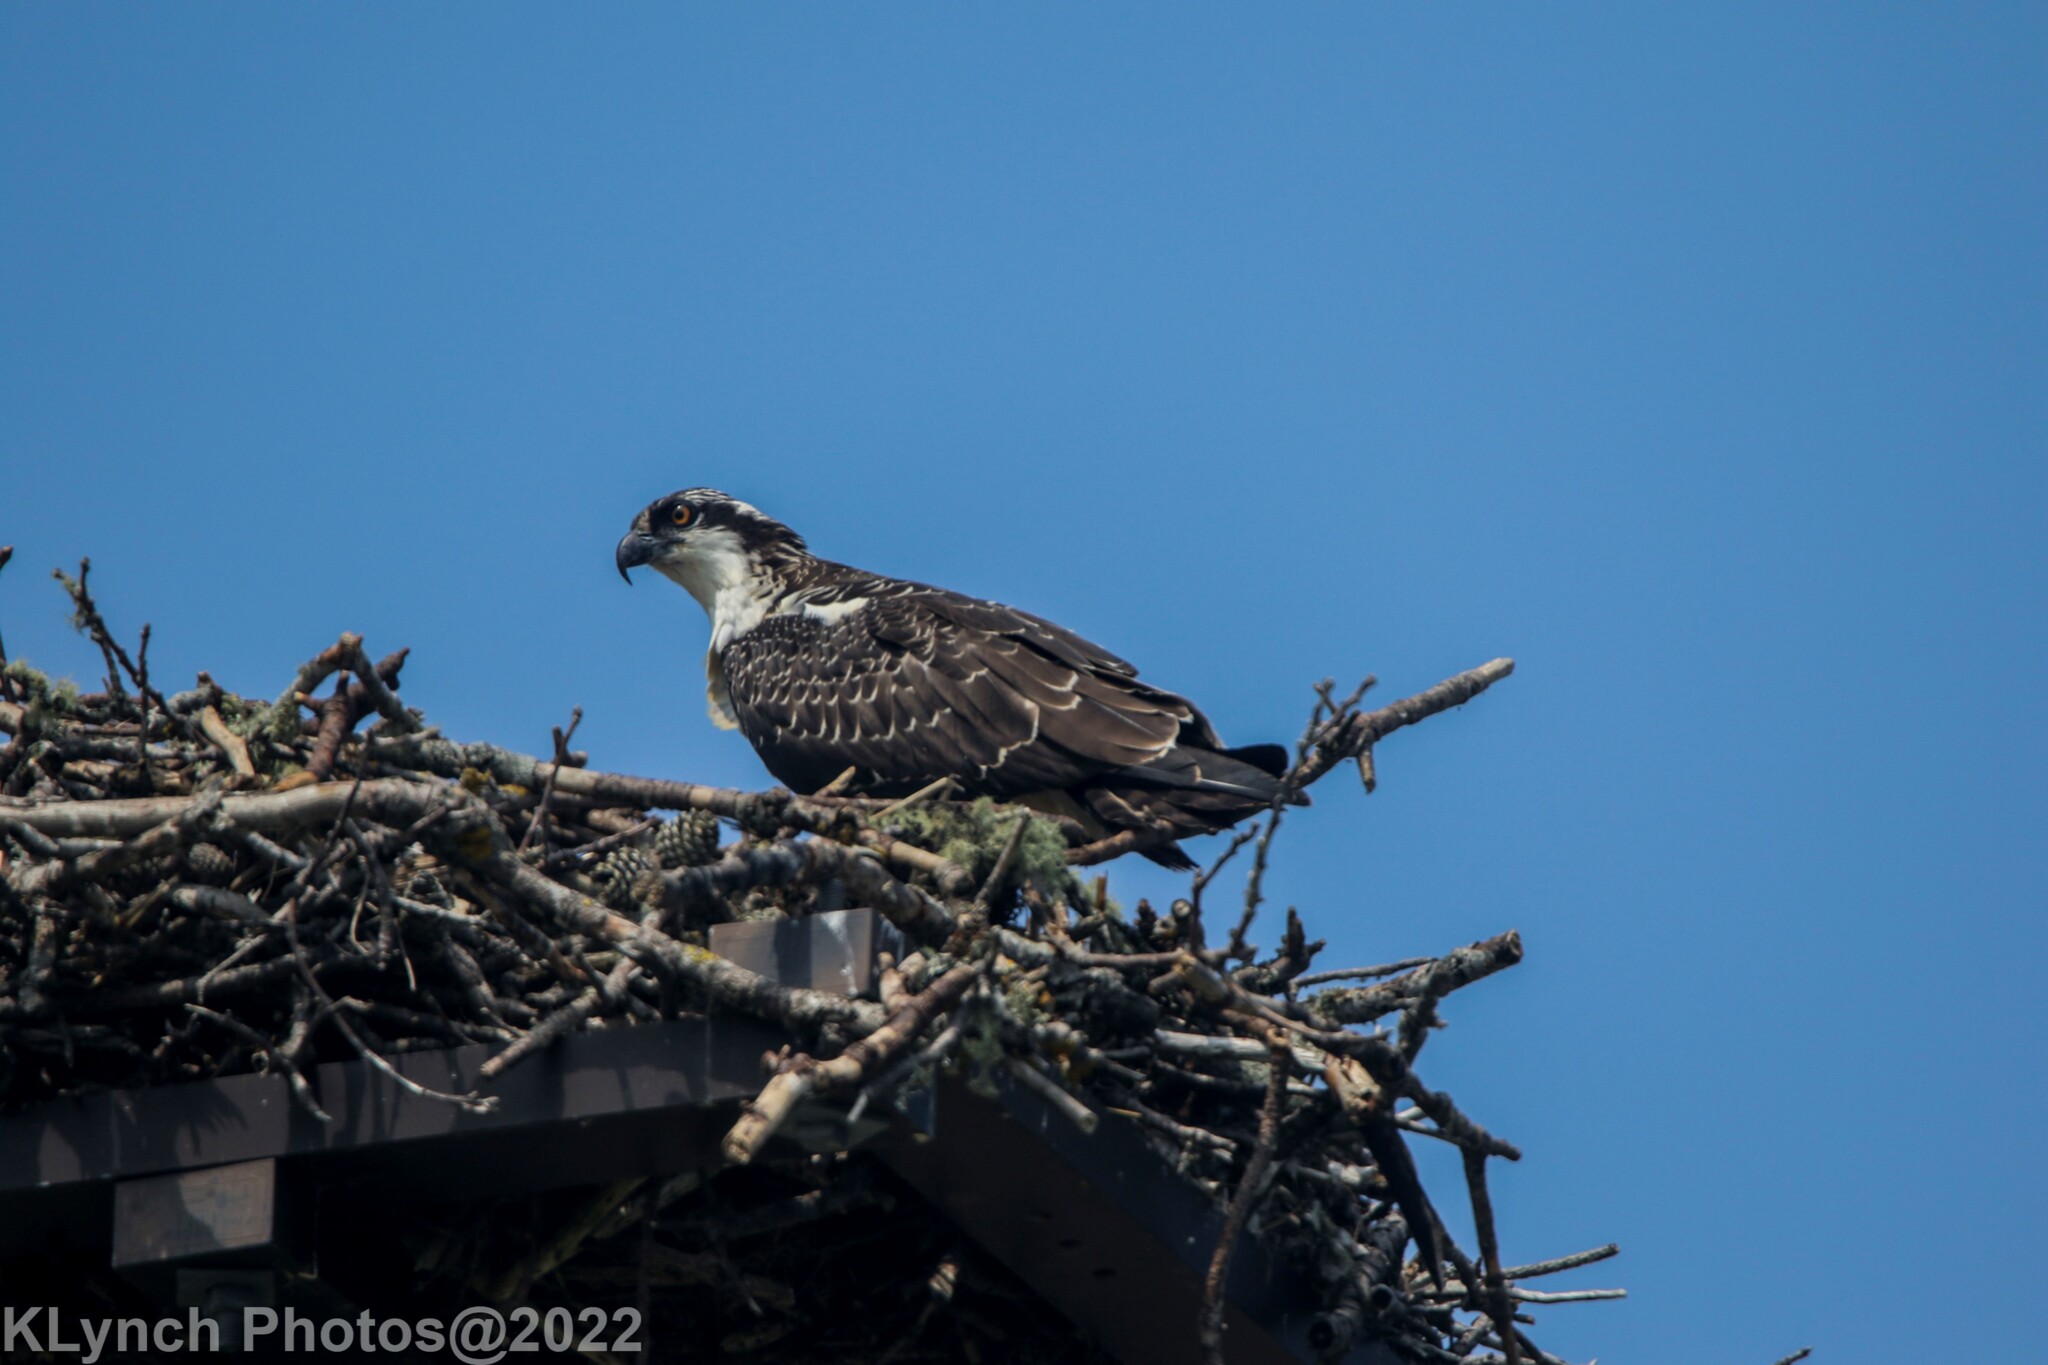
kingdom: Animalia
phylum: Chordata
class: Aves
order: Accipitriformes
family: Pandionidae
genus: Pandion
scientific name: Pandion haliaetus
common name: Osprey
